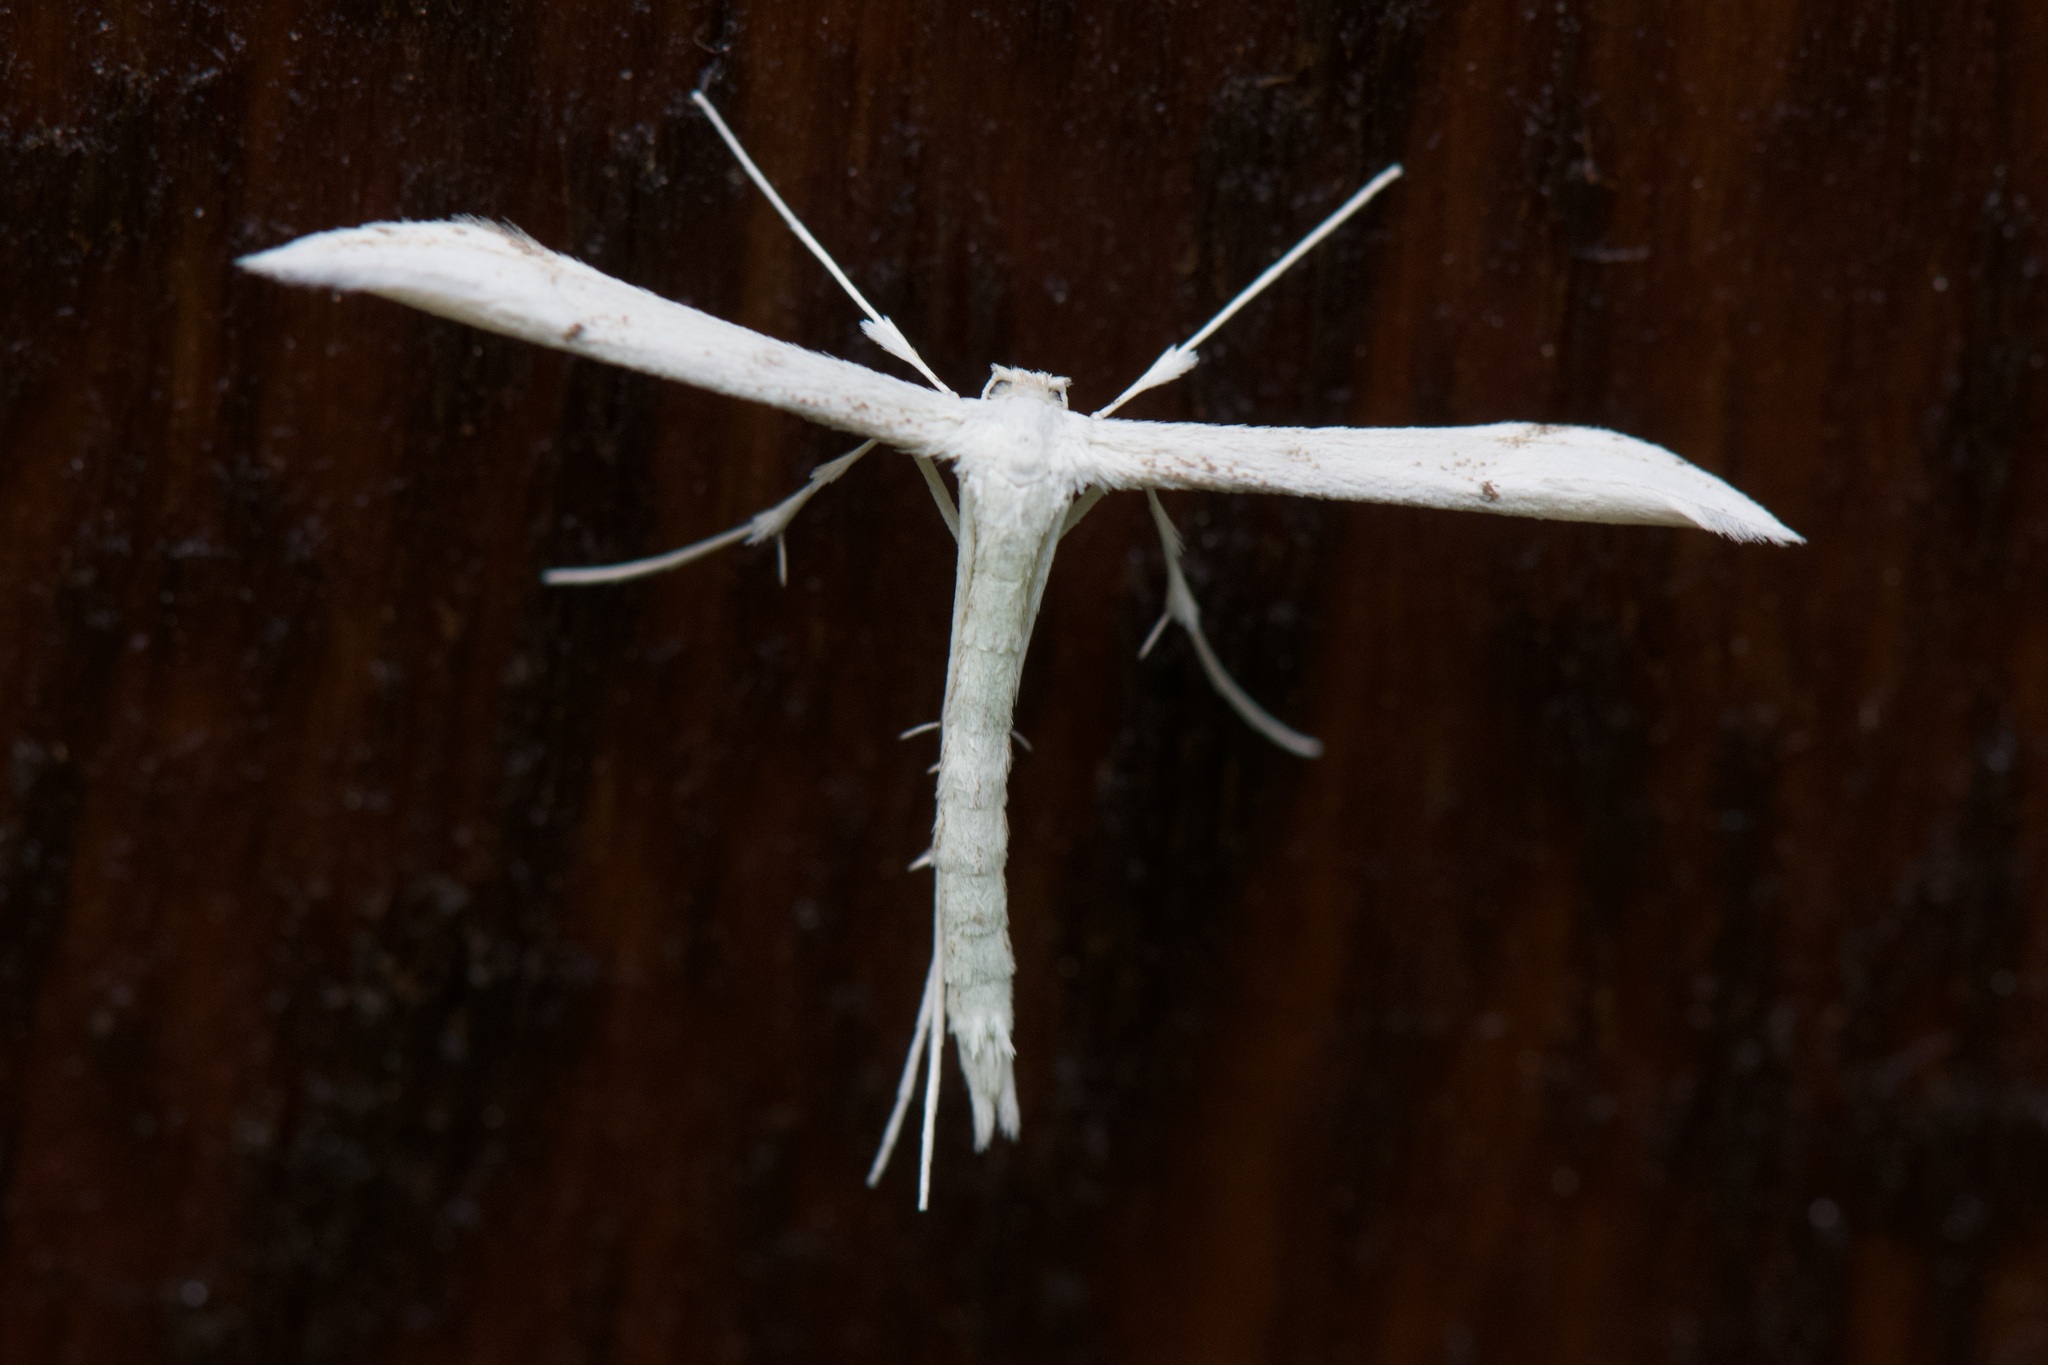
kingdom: Animalia
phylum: Arthropoda
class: Insecta
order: Lepidoptera
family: Pterophoridae
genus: Hellinsia
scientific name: Hellinsia elliottii
